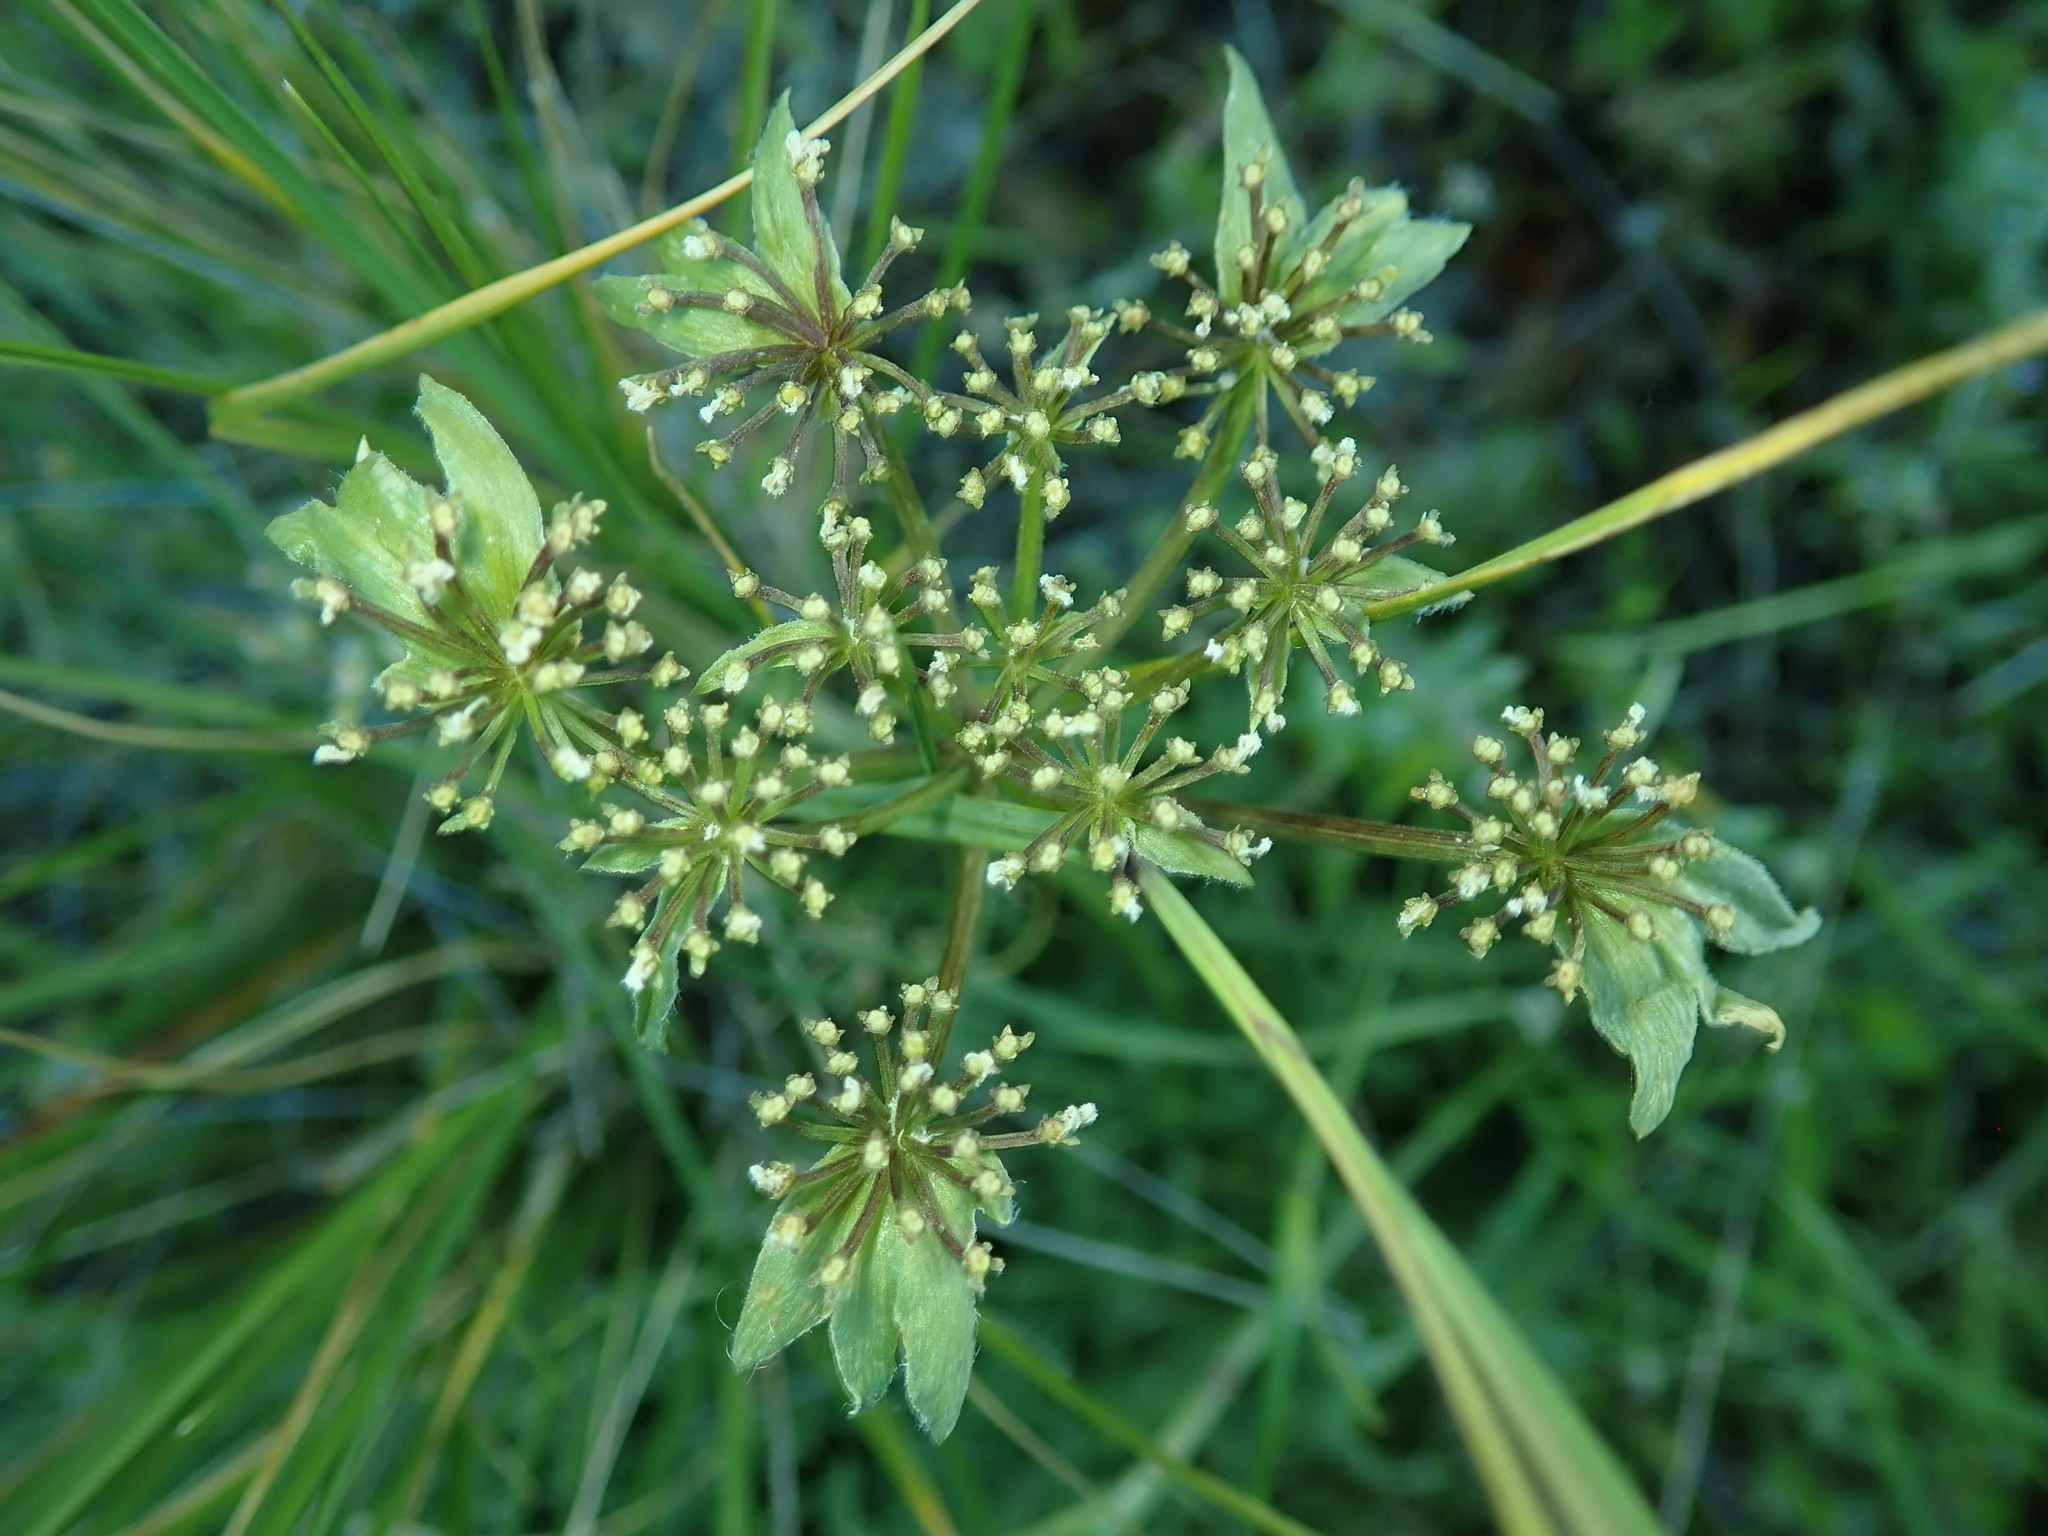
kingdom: Plantae
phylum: Tracheophyta
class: Magnoliopsida
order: Apiales
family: Apiaceae
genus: Lomatium
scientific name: Lomatium dasycarpum
